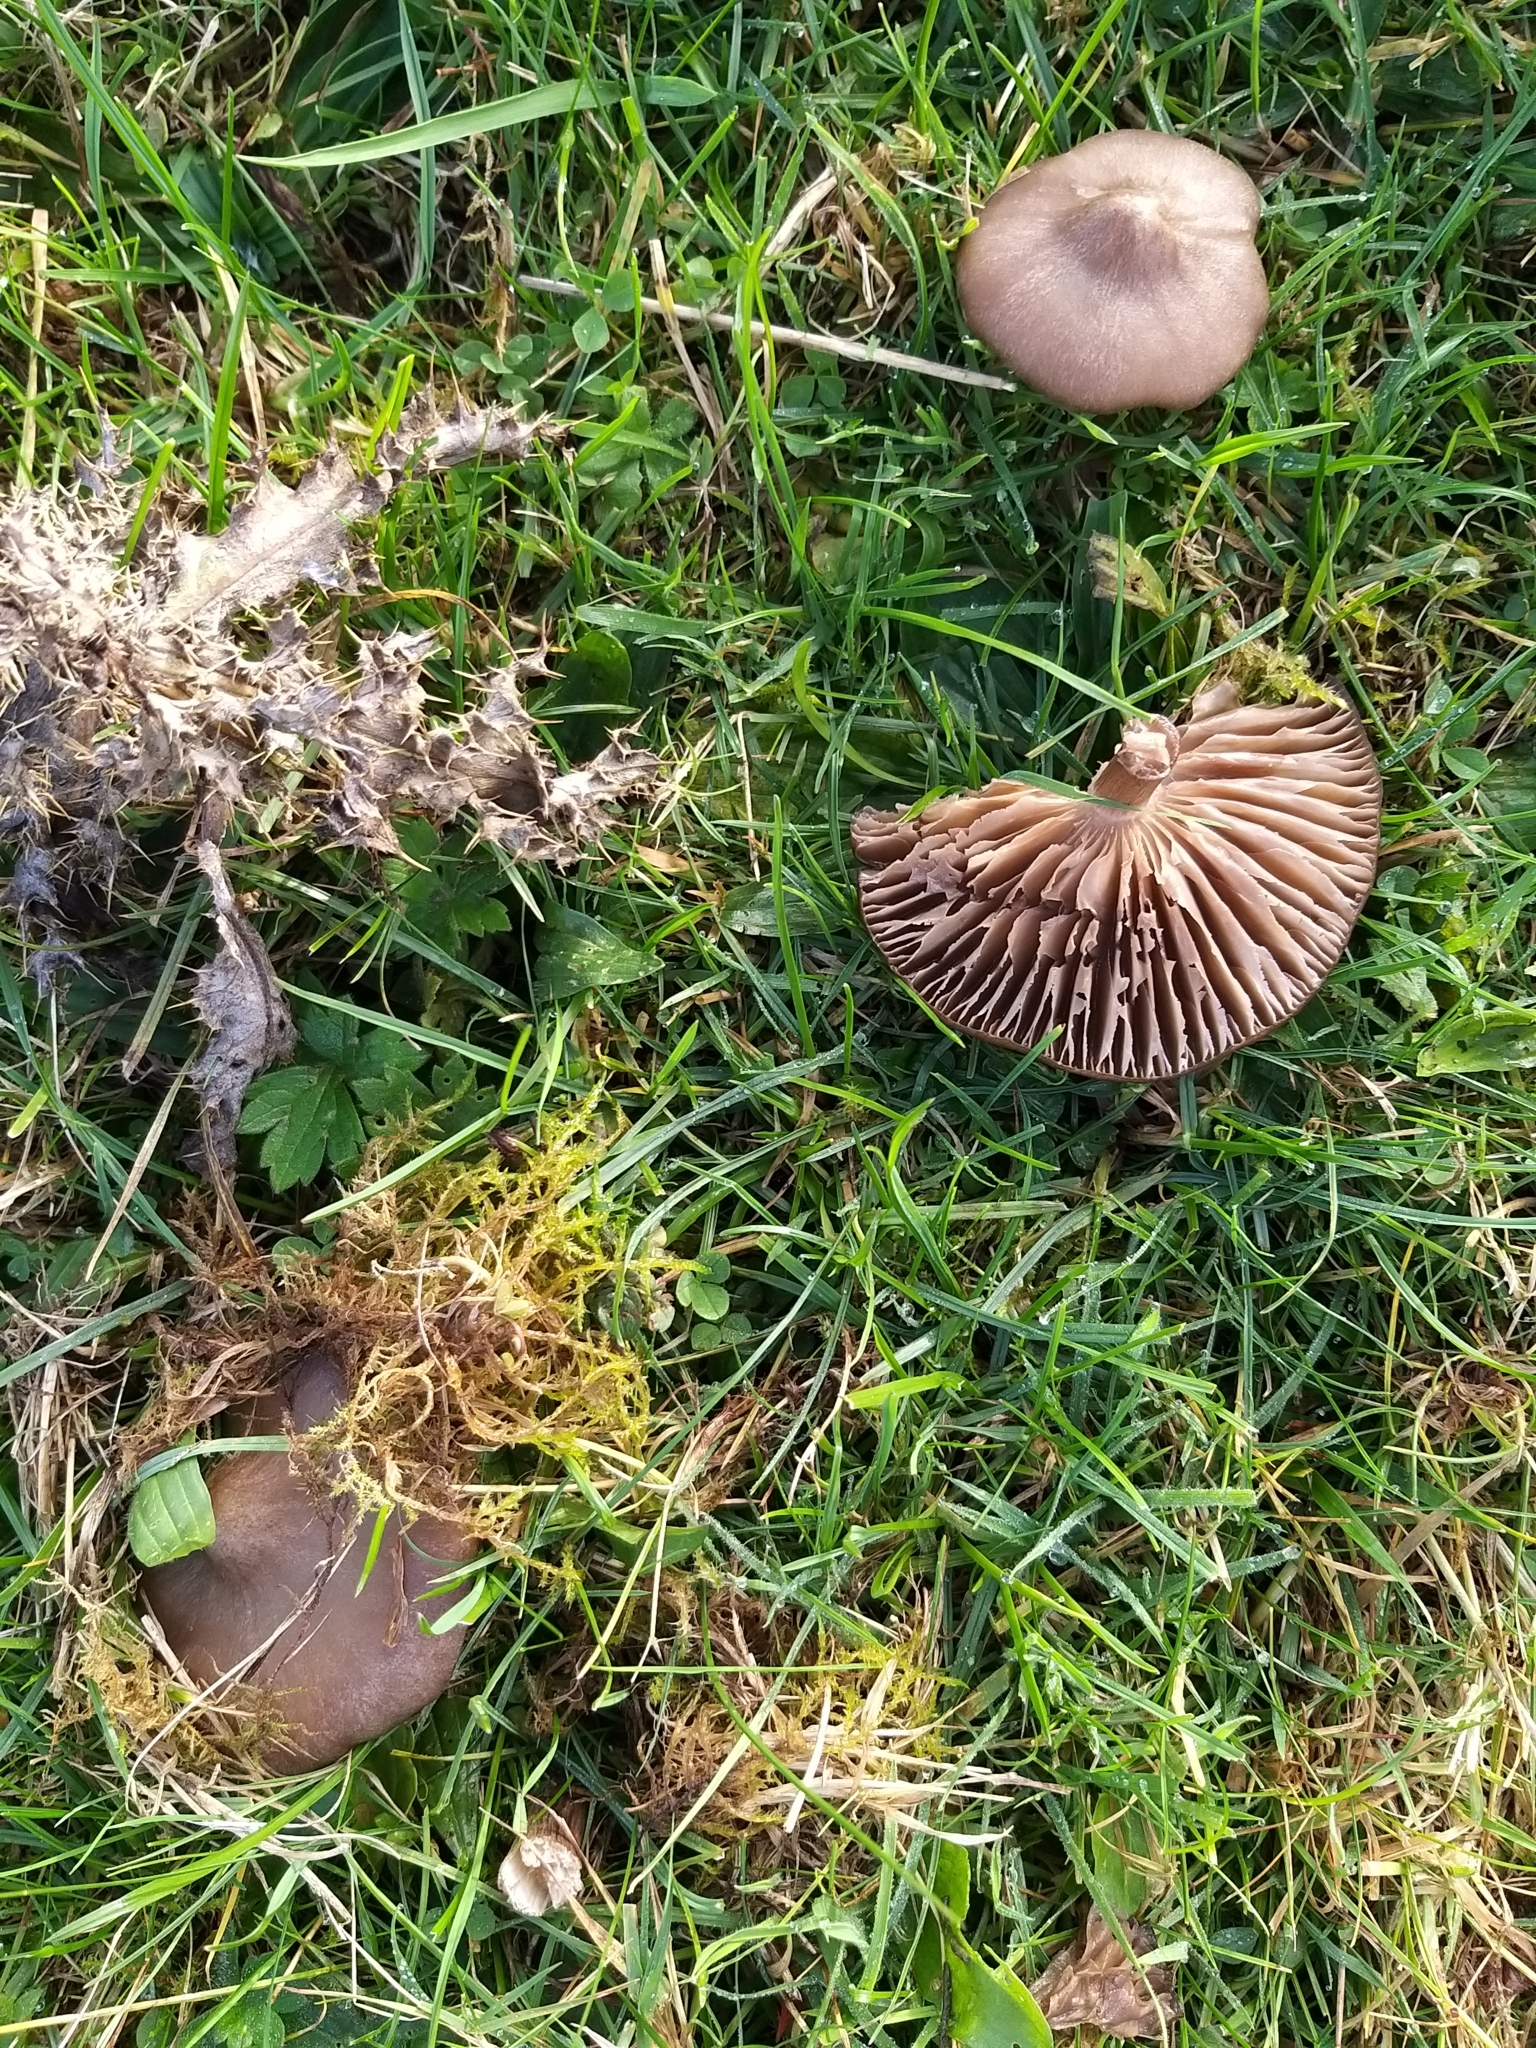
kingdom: Fungi
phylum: Basidiomycota
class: Agaricomycetes
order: Agaricales
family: Entolomataceae
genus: Entoloma
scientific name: Entoloma porphyrophaeum
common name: Lilac pinkgill
